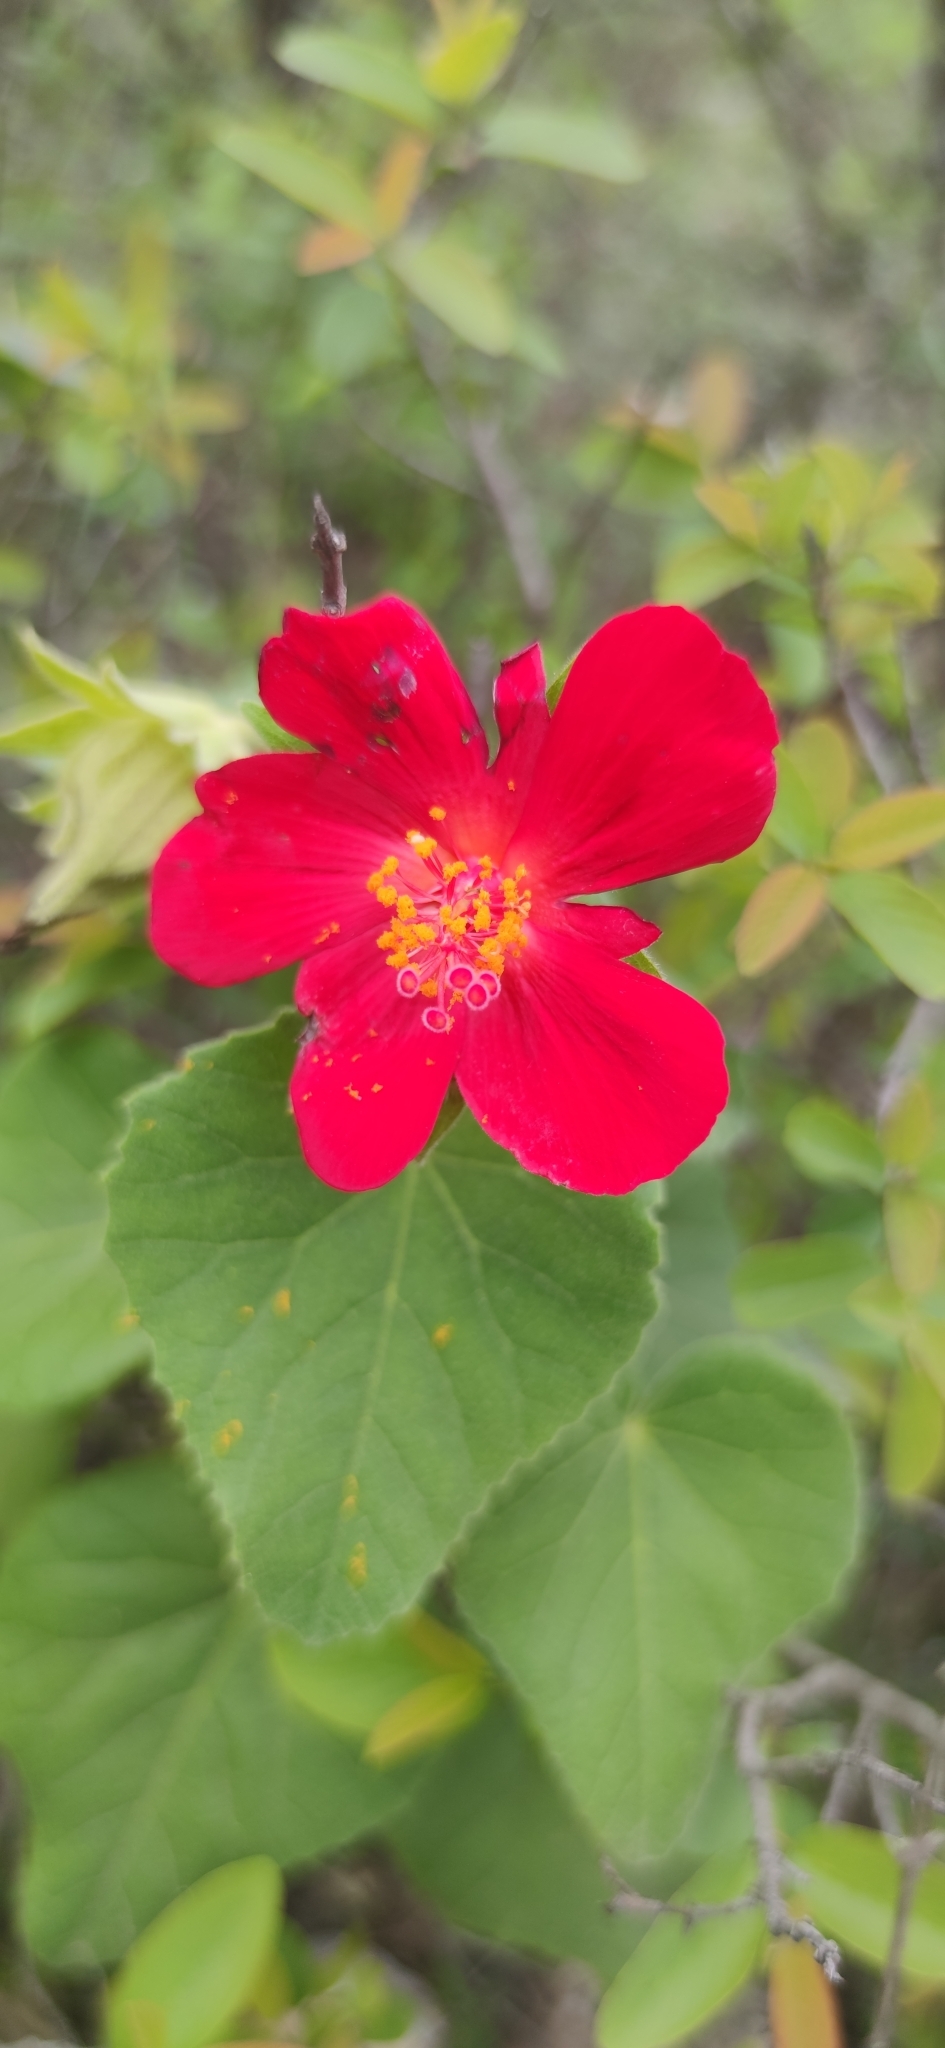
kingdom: Plantae
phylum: Tracheophyta
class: Magnoliopsida
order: Malvales
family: Malvaceae
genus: Hibiscus
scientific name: Hibiscus martianus
